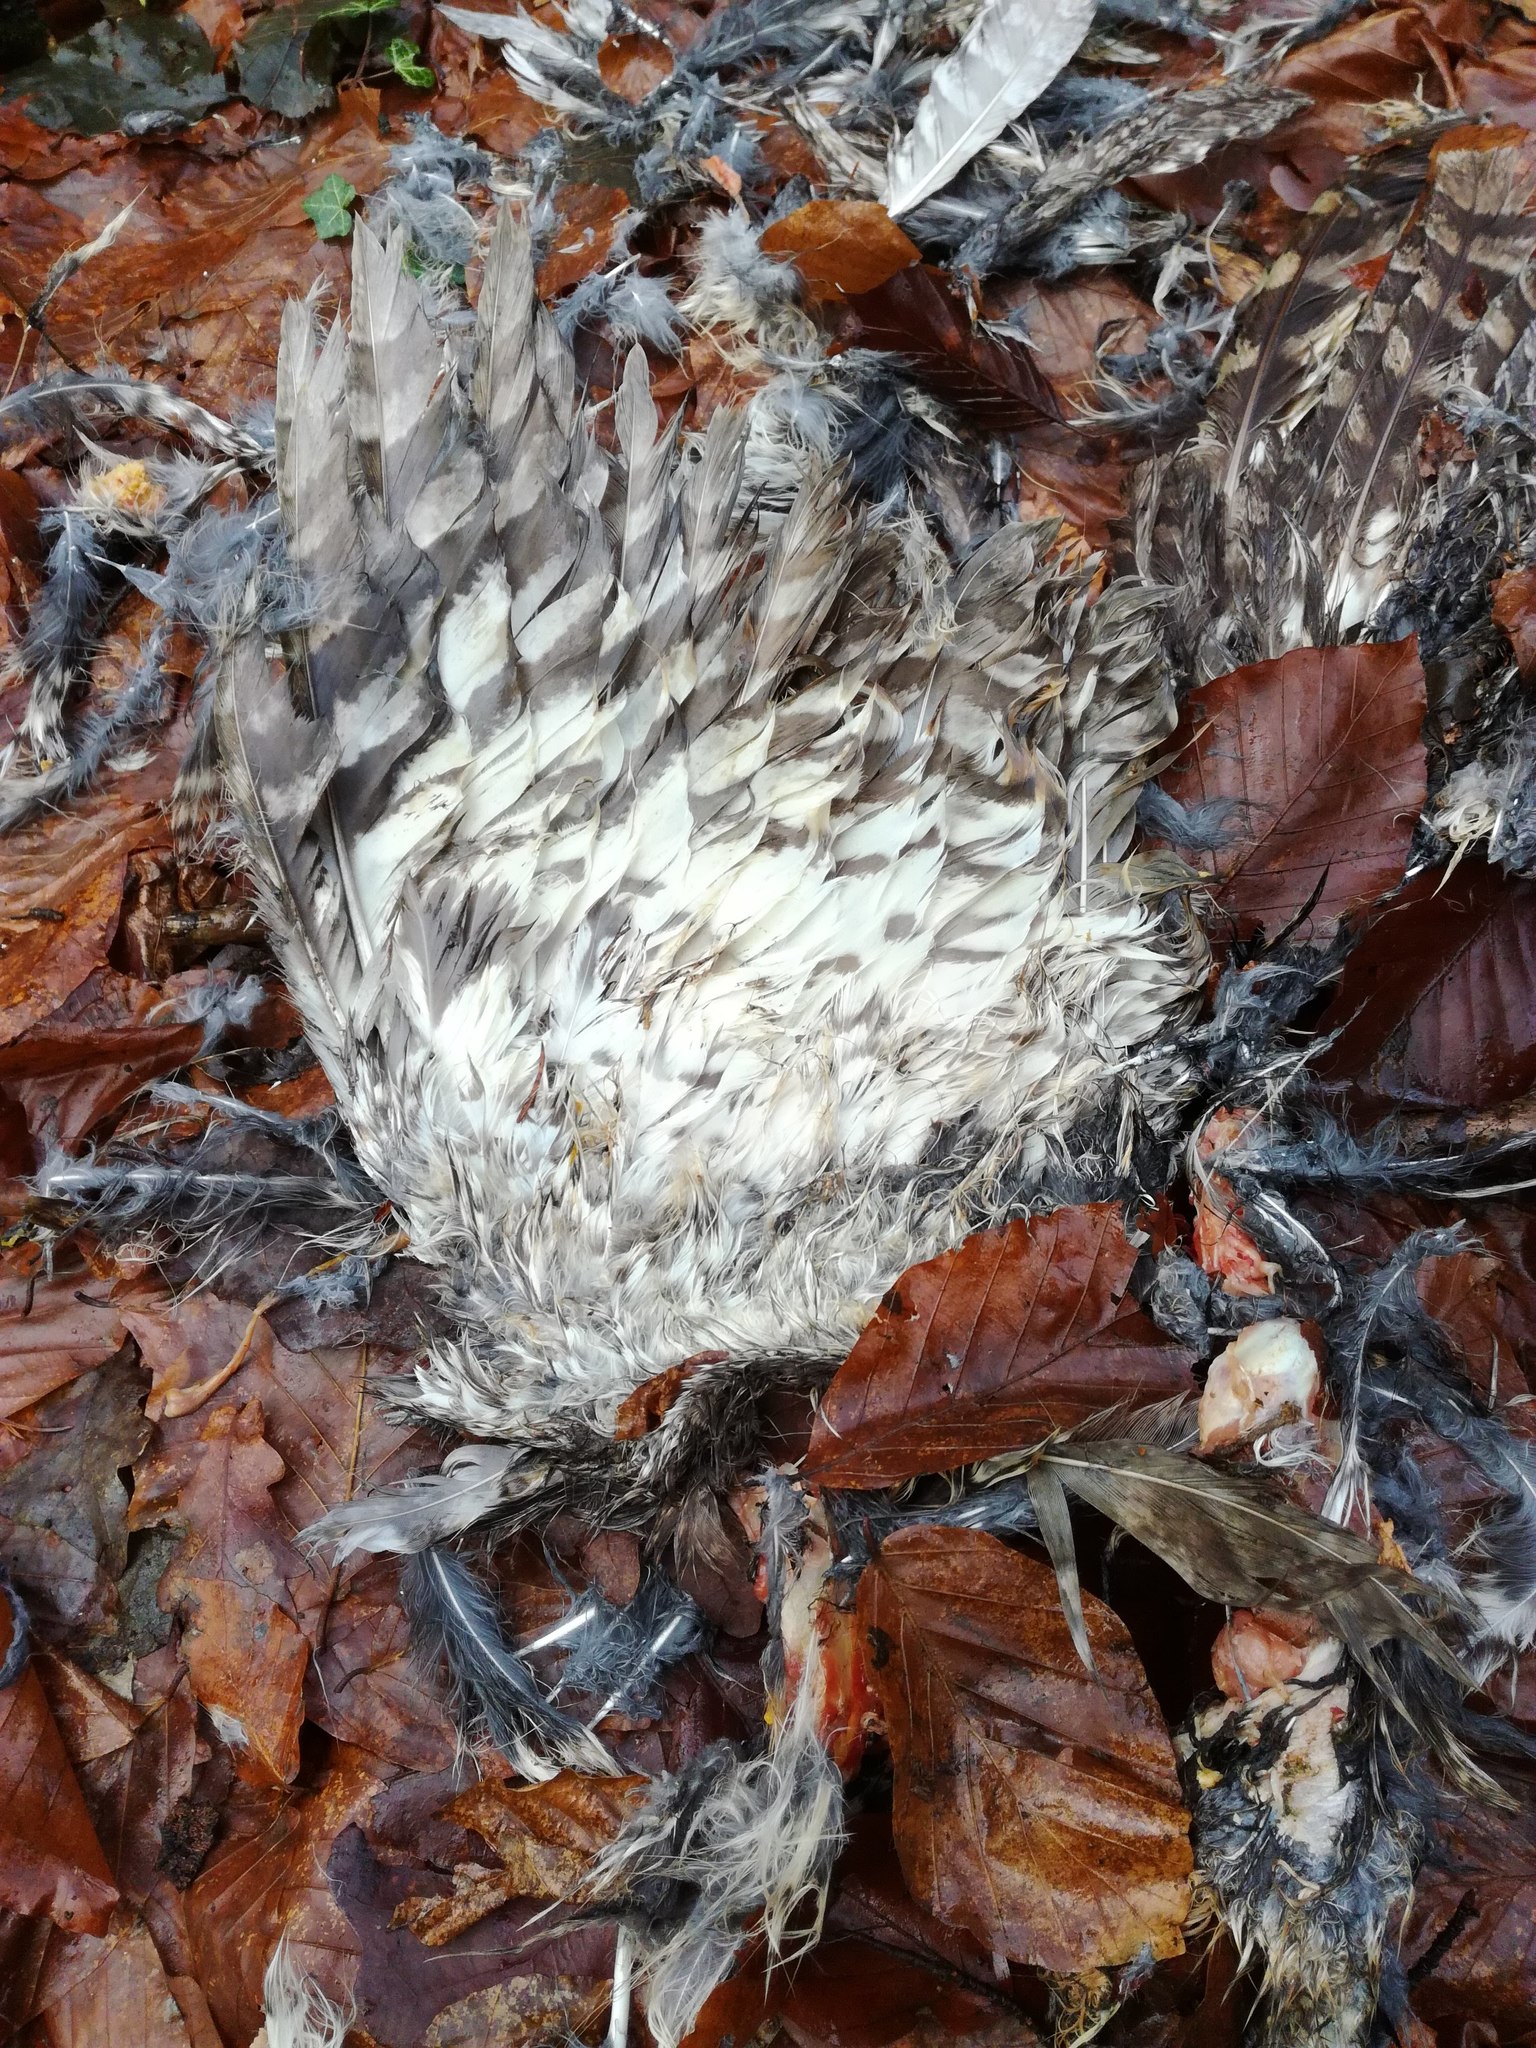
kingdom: Animalia
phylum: Chordata
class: Aves
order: Strigiformes
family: Strigidae
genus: Strix
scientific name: Strix aluco
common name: Tawny owl
